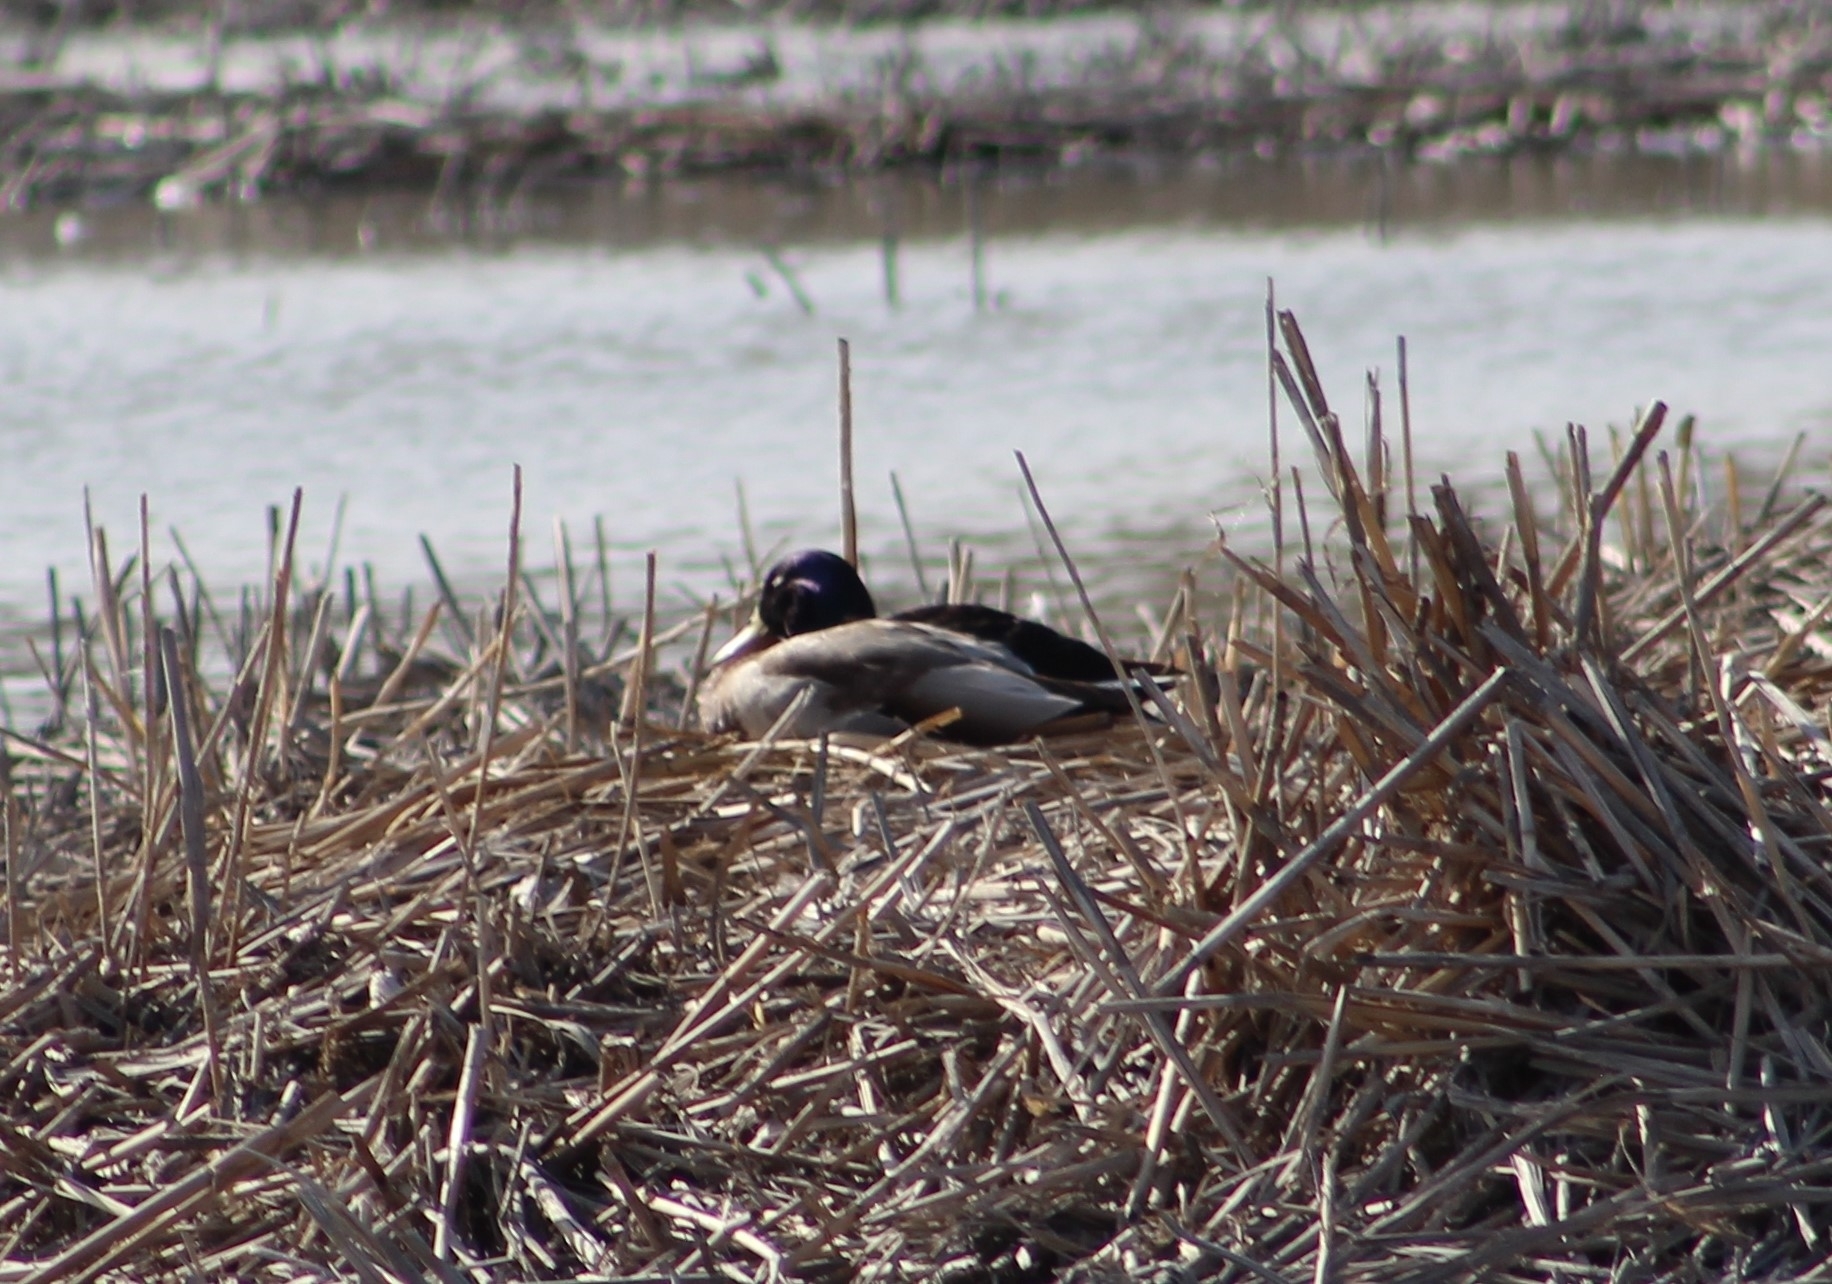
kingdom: Animalia
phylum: Chordata
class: Aves
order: Anseriformes
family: Anatidae
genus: Anas
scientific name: Anas platyrhynchos
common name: Mallard
